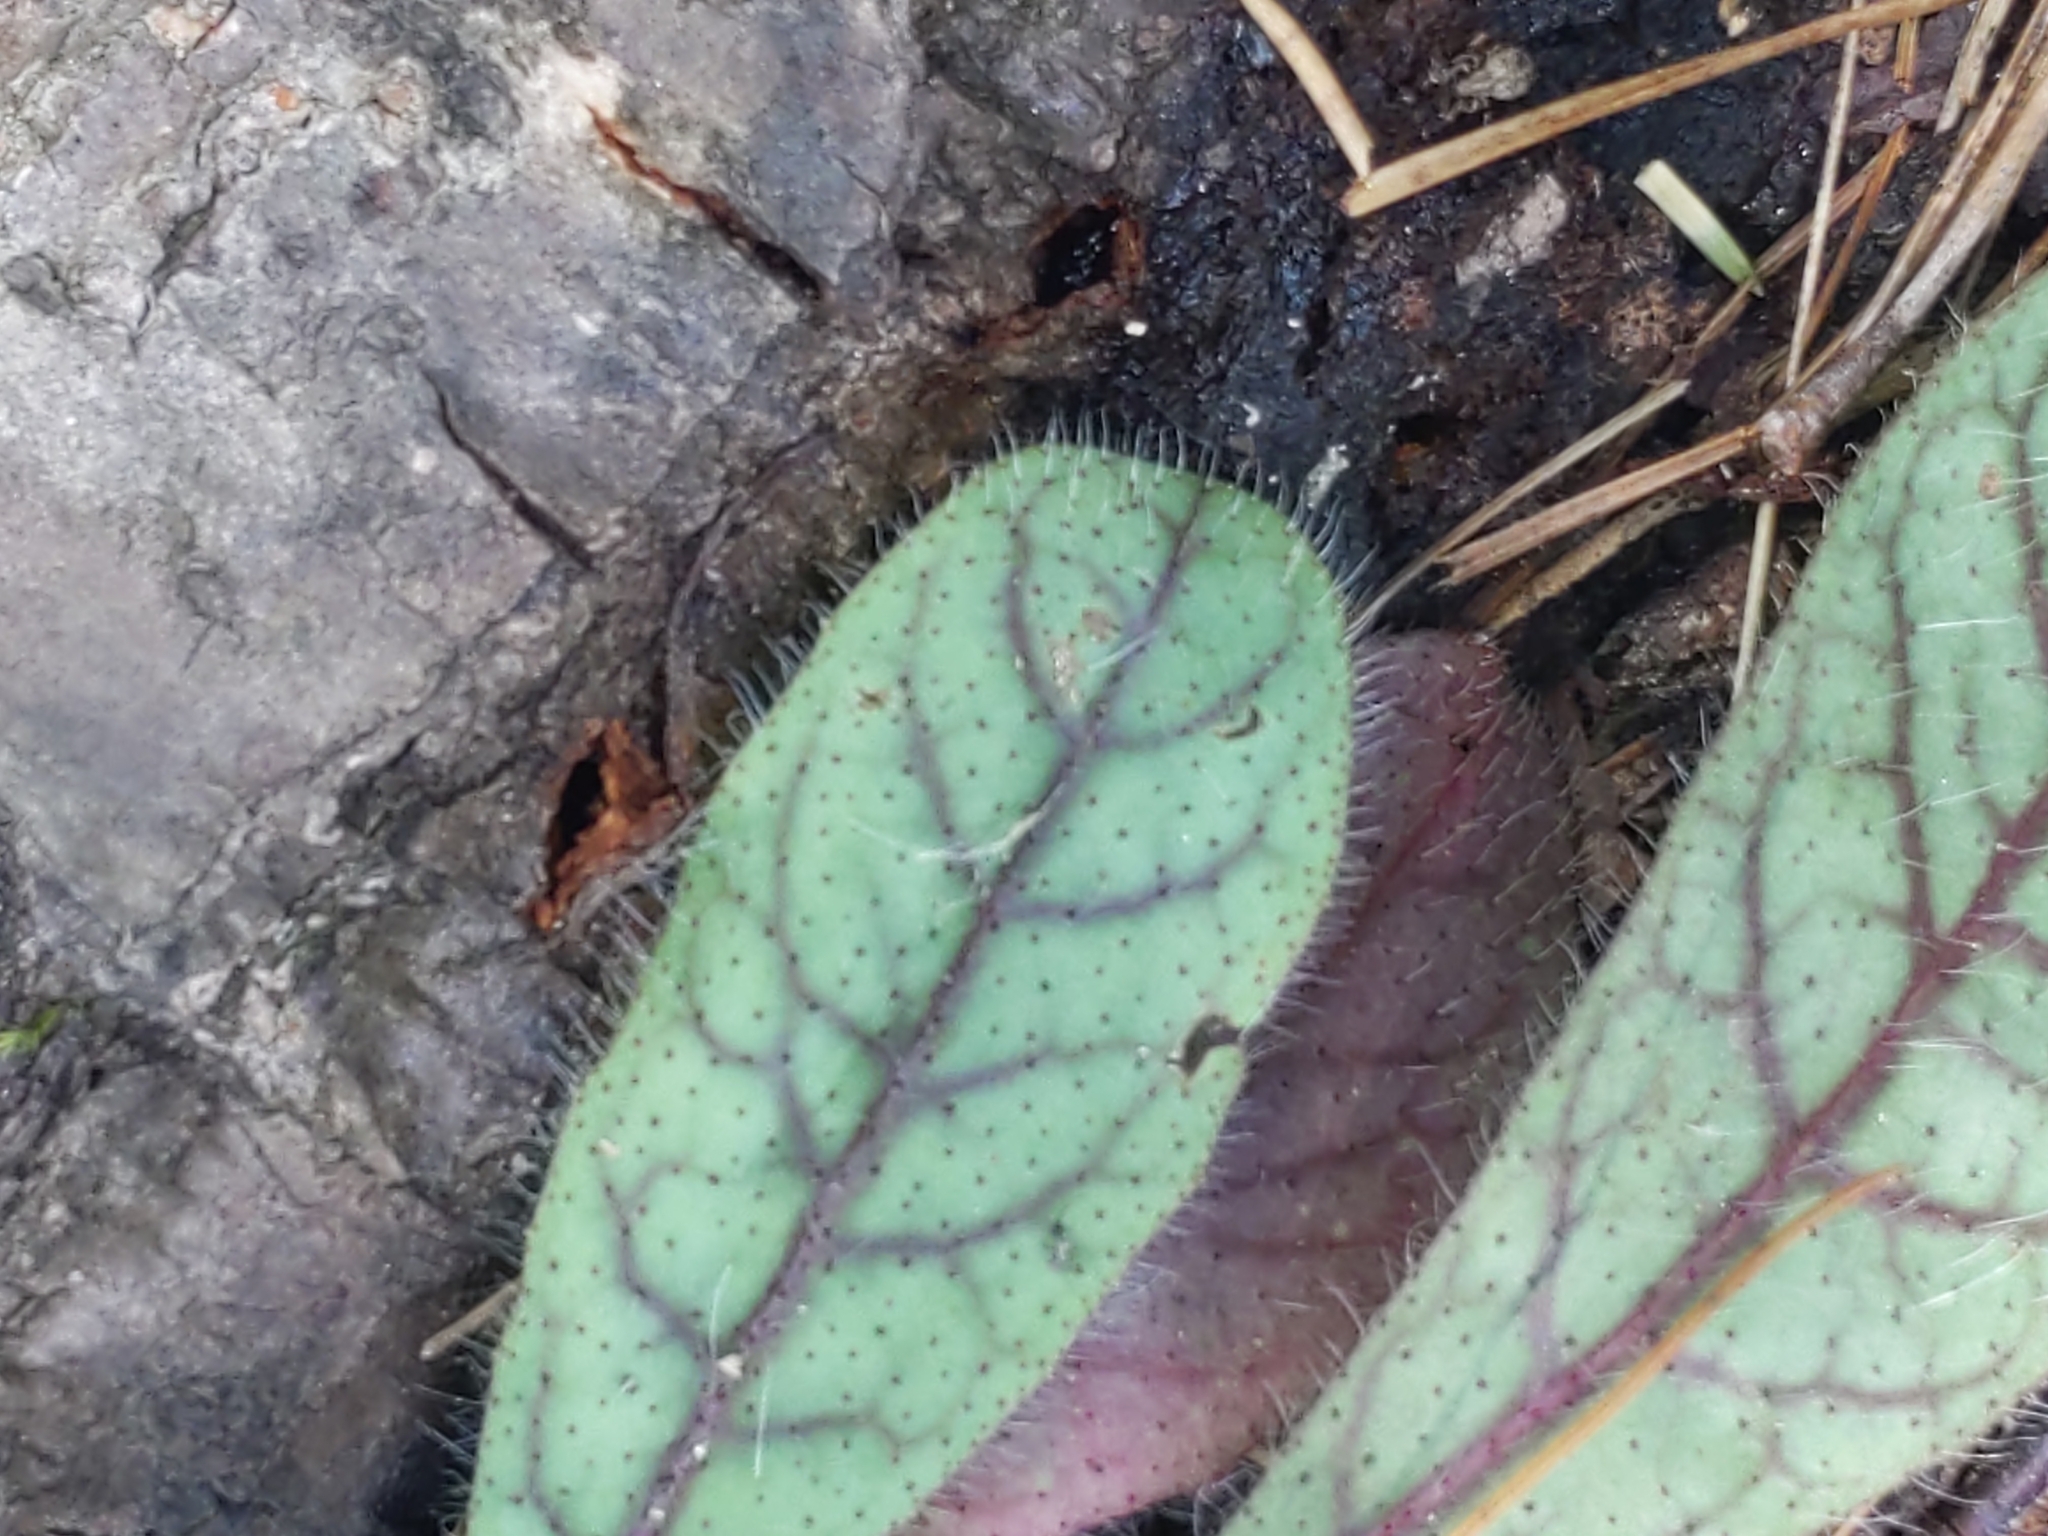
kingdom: Plantae
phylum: Tracheophyta
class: Magnoliopsida
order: Asterales
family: Asteraceae
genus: Hieracium
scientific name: Hieracium venosum
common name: Rattlesnake hawkweed
